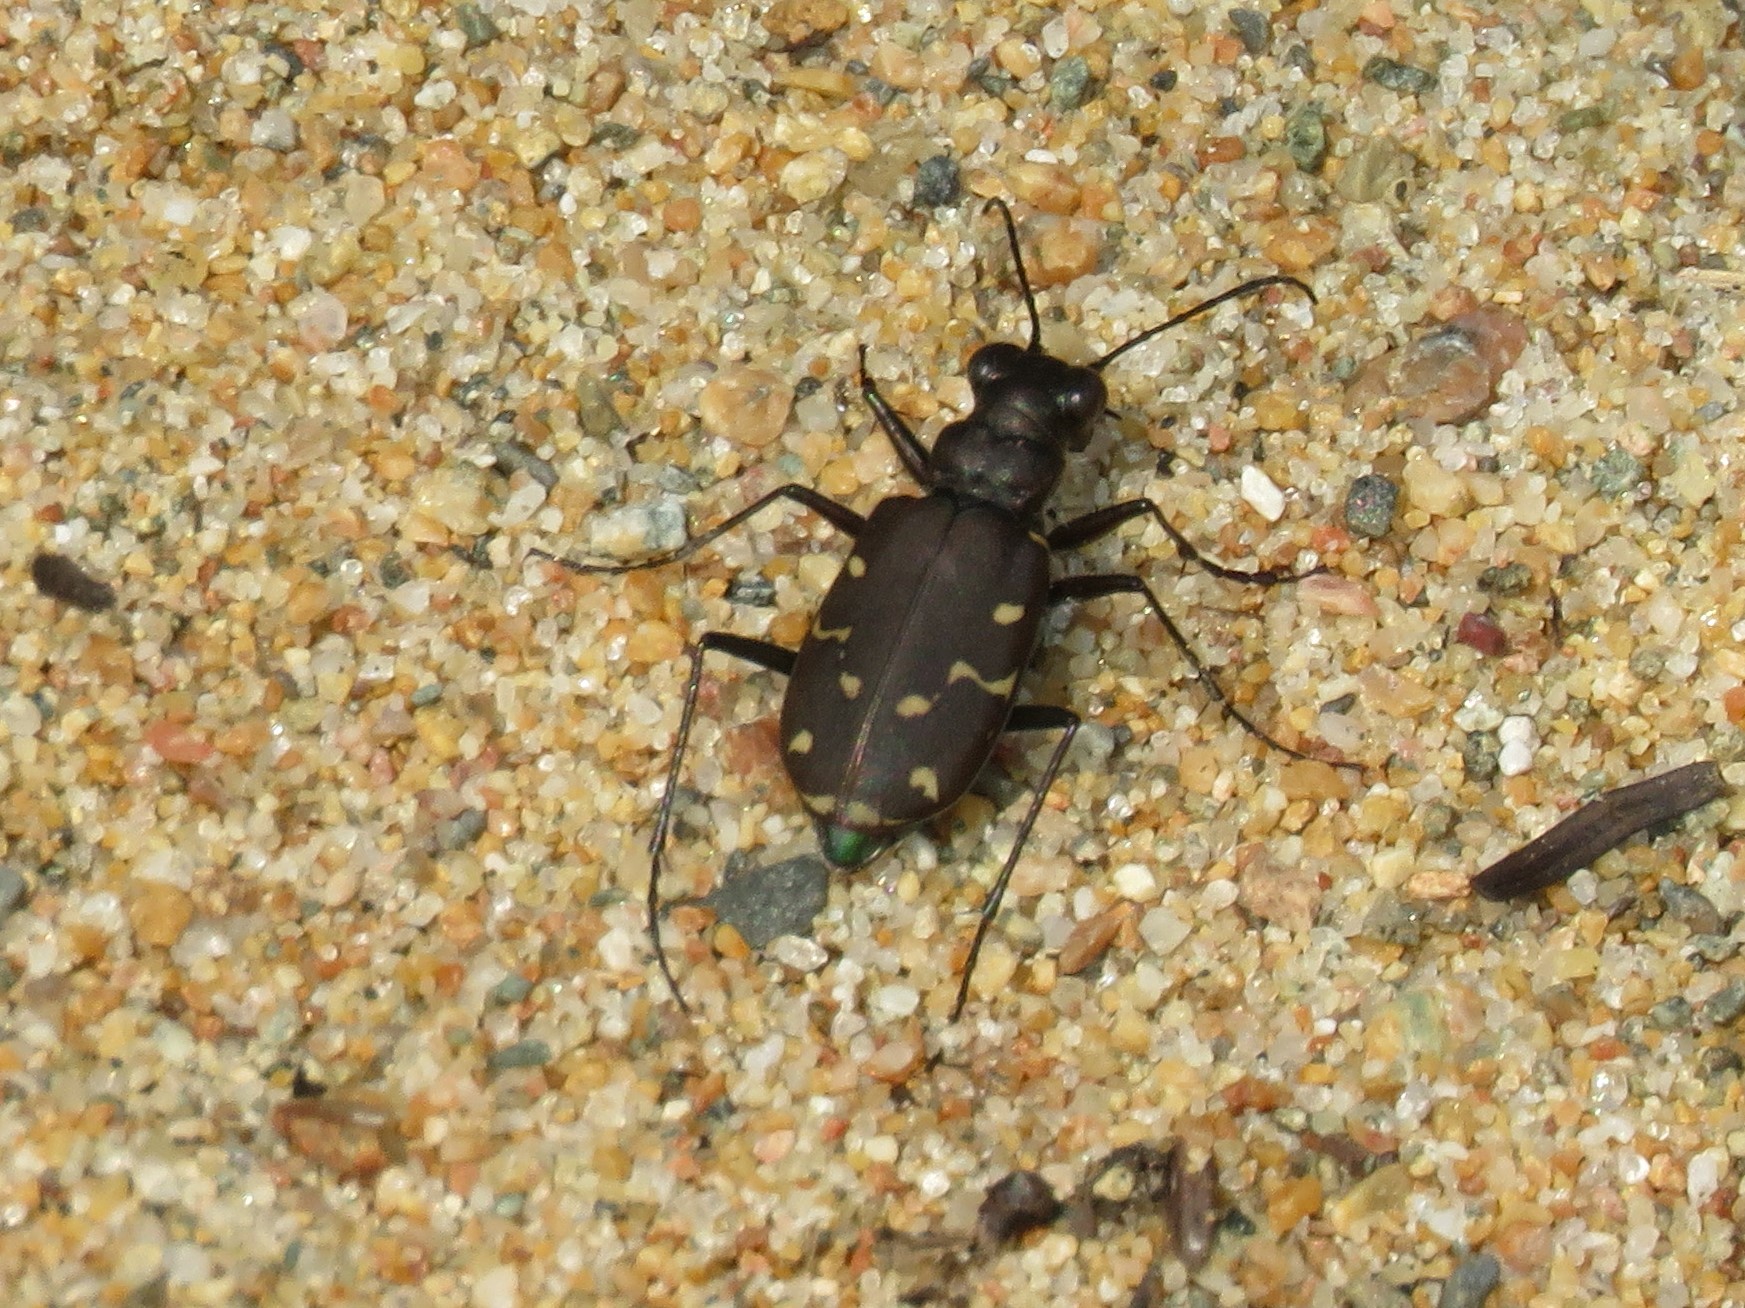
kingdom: Animalia
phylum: Arthropoda
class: Insecta
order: Coleoptera
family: Carabidae
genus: Cicindela
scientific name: Cicindela duodecimguttata
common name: Twelve-spotted tiger beetle
